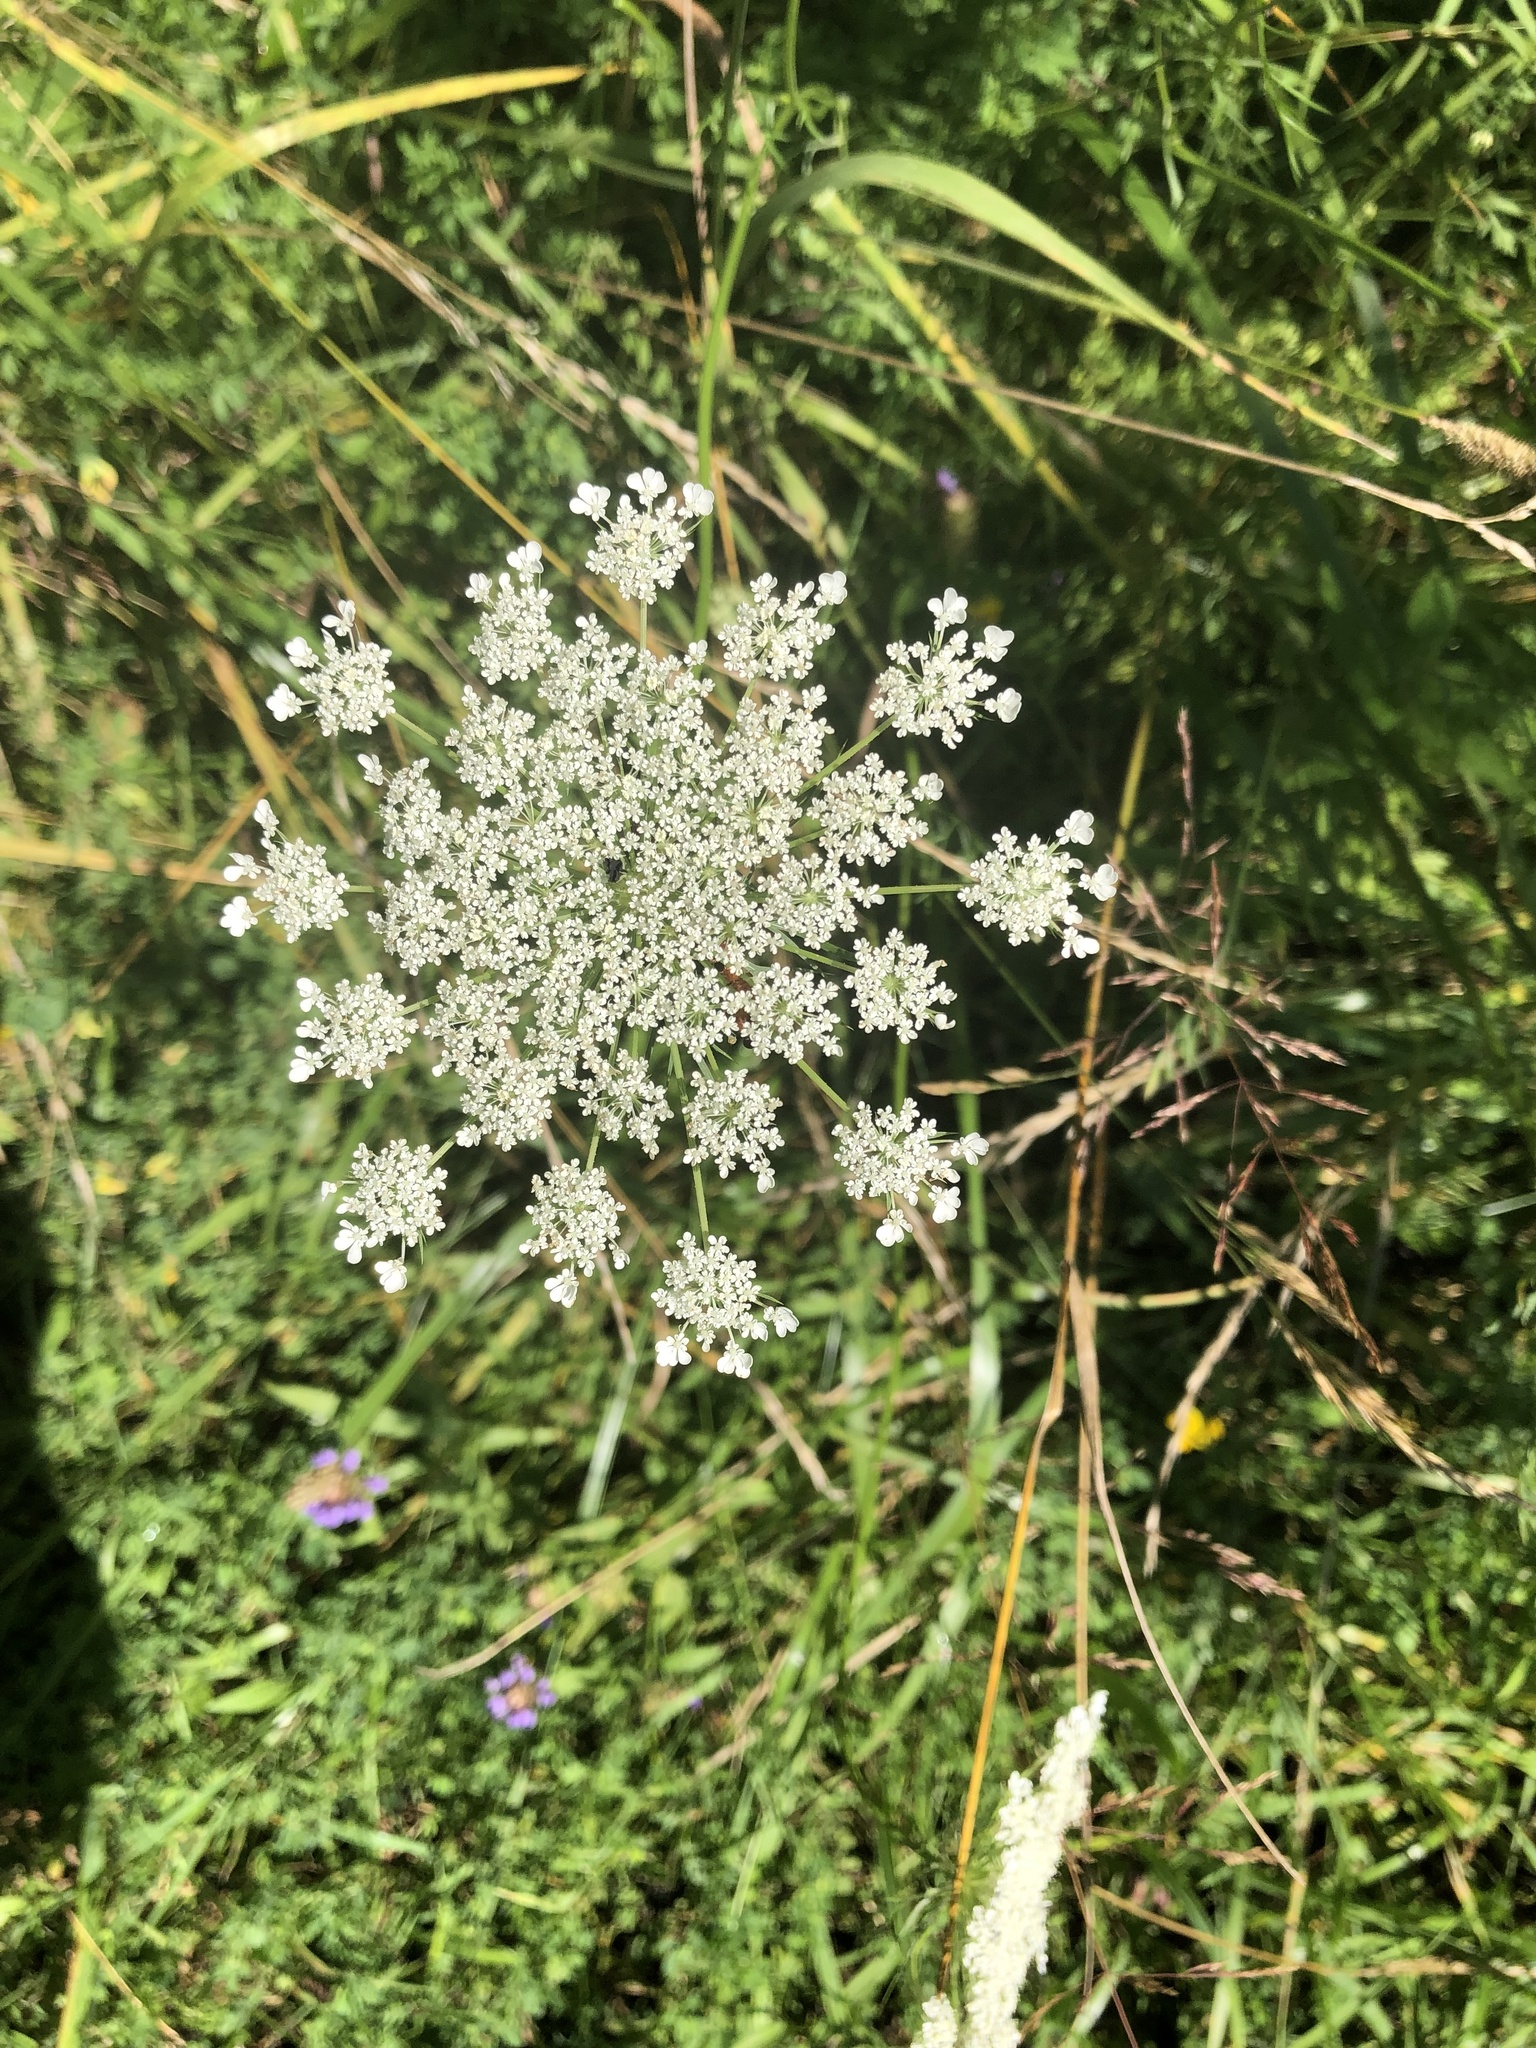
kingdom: Plantae
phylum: Tracheophyta
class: Magnoliopsida
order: Apiales
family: Apiaceae
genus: Daucus
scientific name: Daucus carota
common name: Wild carrot
